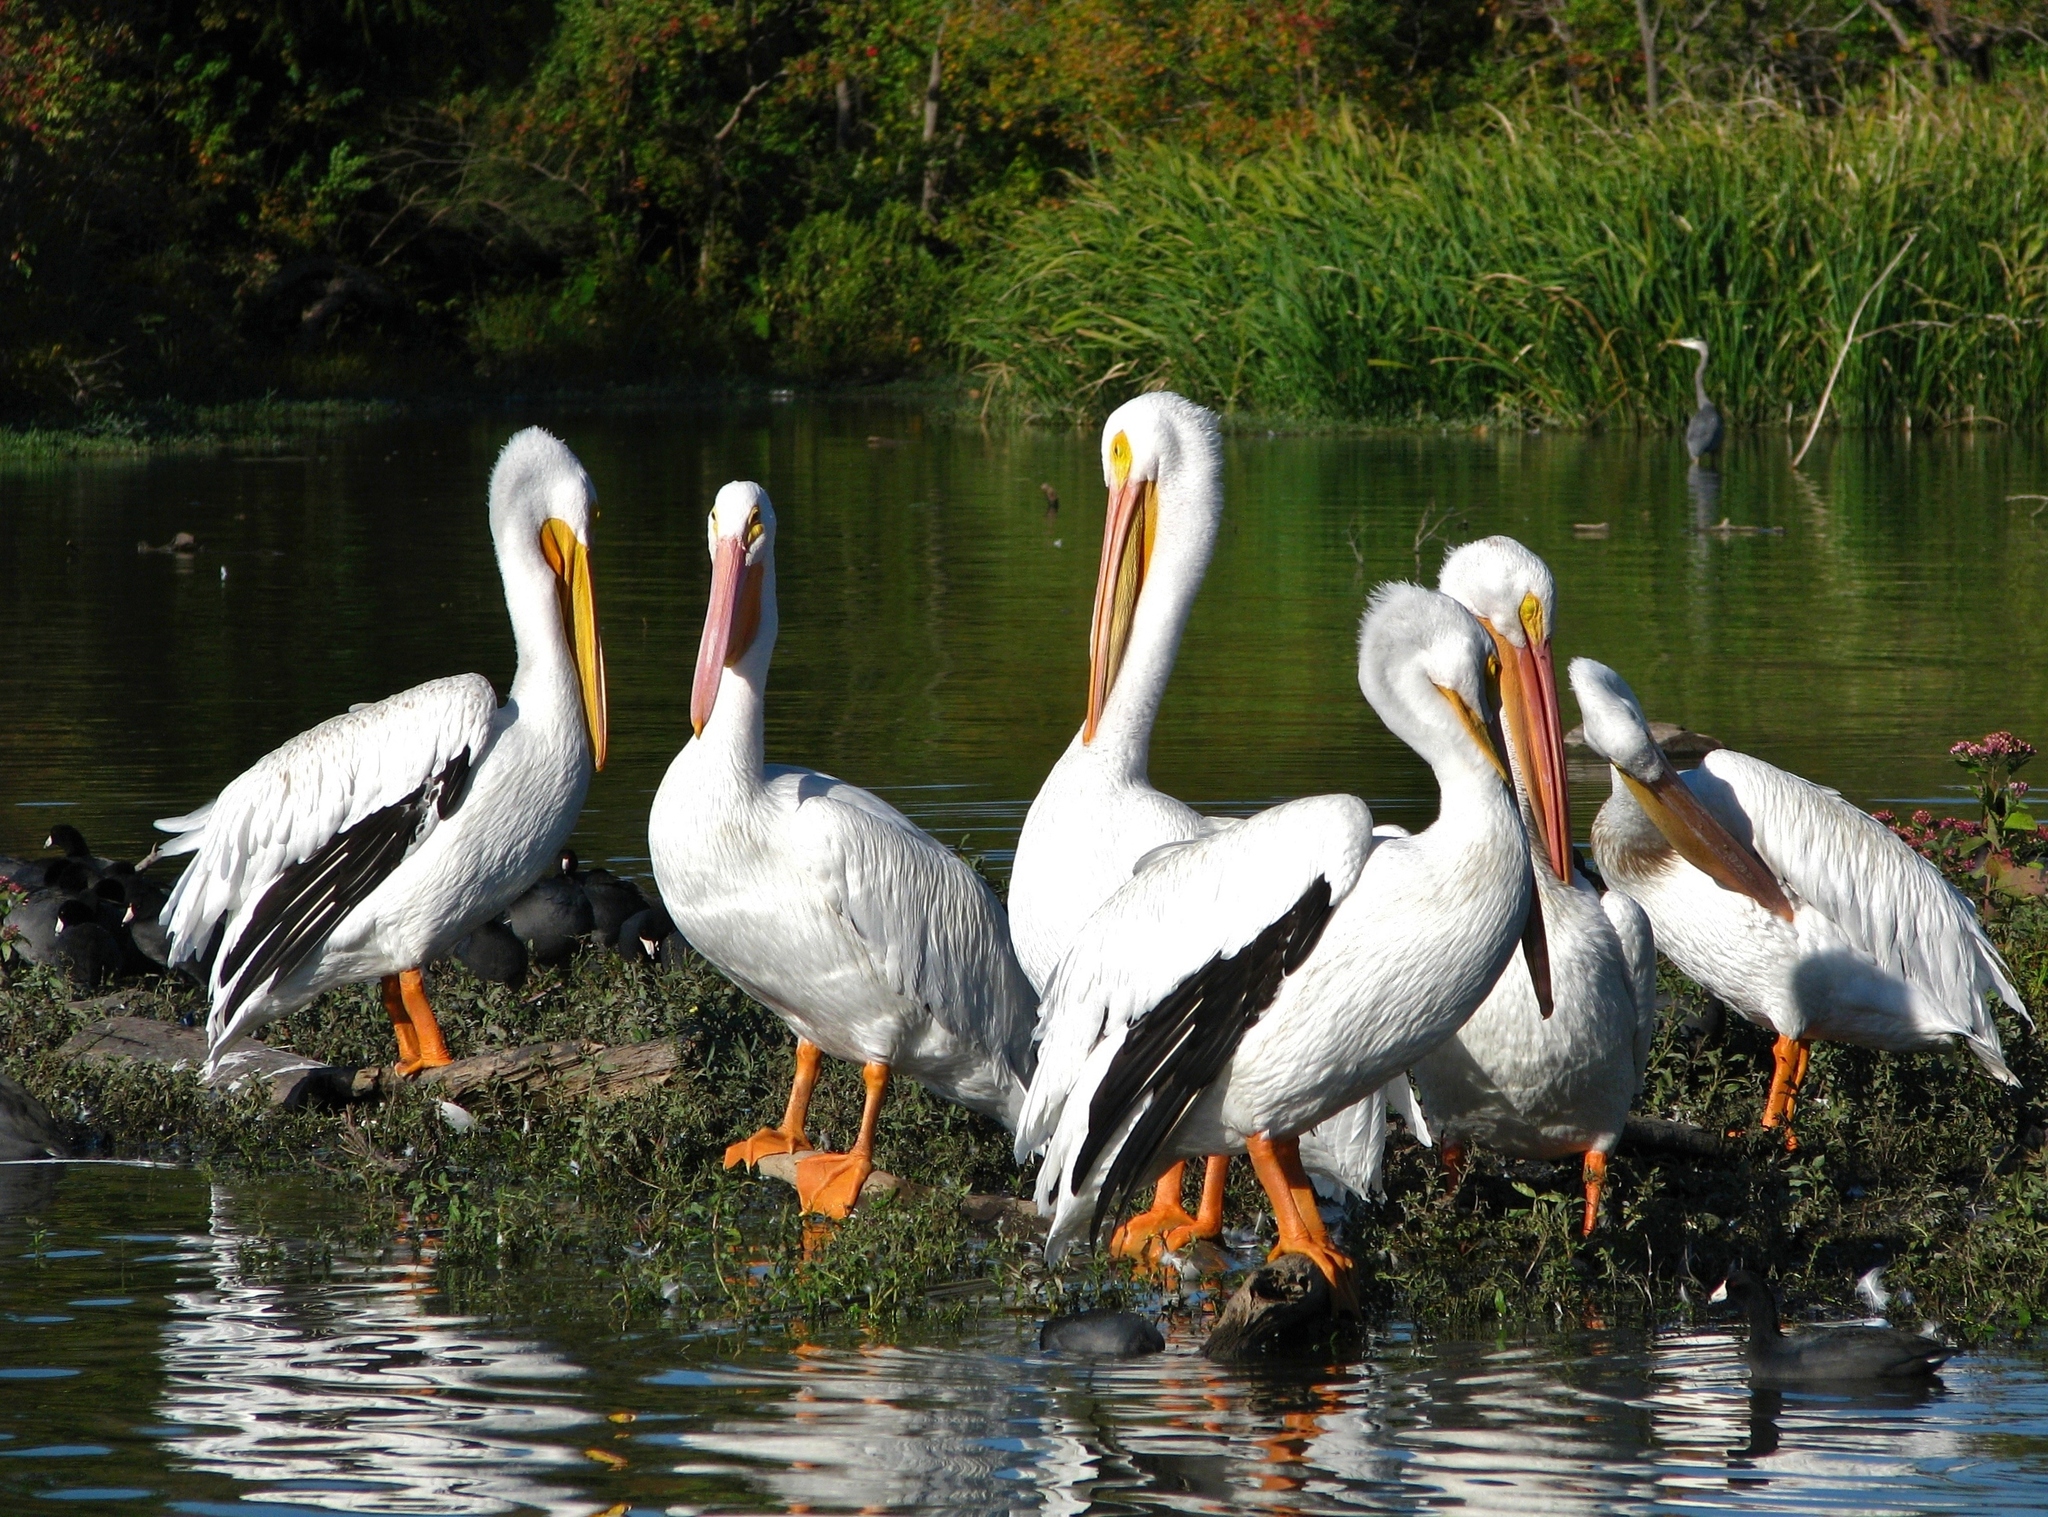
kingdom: Animalia
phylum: Chordata
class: Aves
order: Pelecaniformes
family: Pelecanidae
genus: Pelecanus
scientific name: Pelecanus erythrorhynchos
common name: American white pelican
